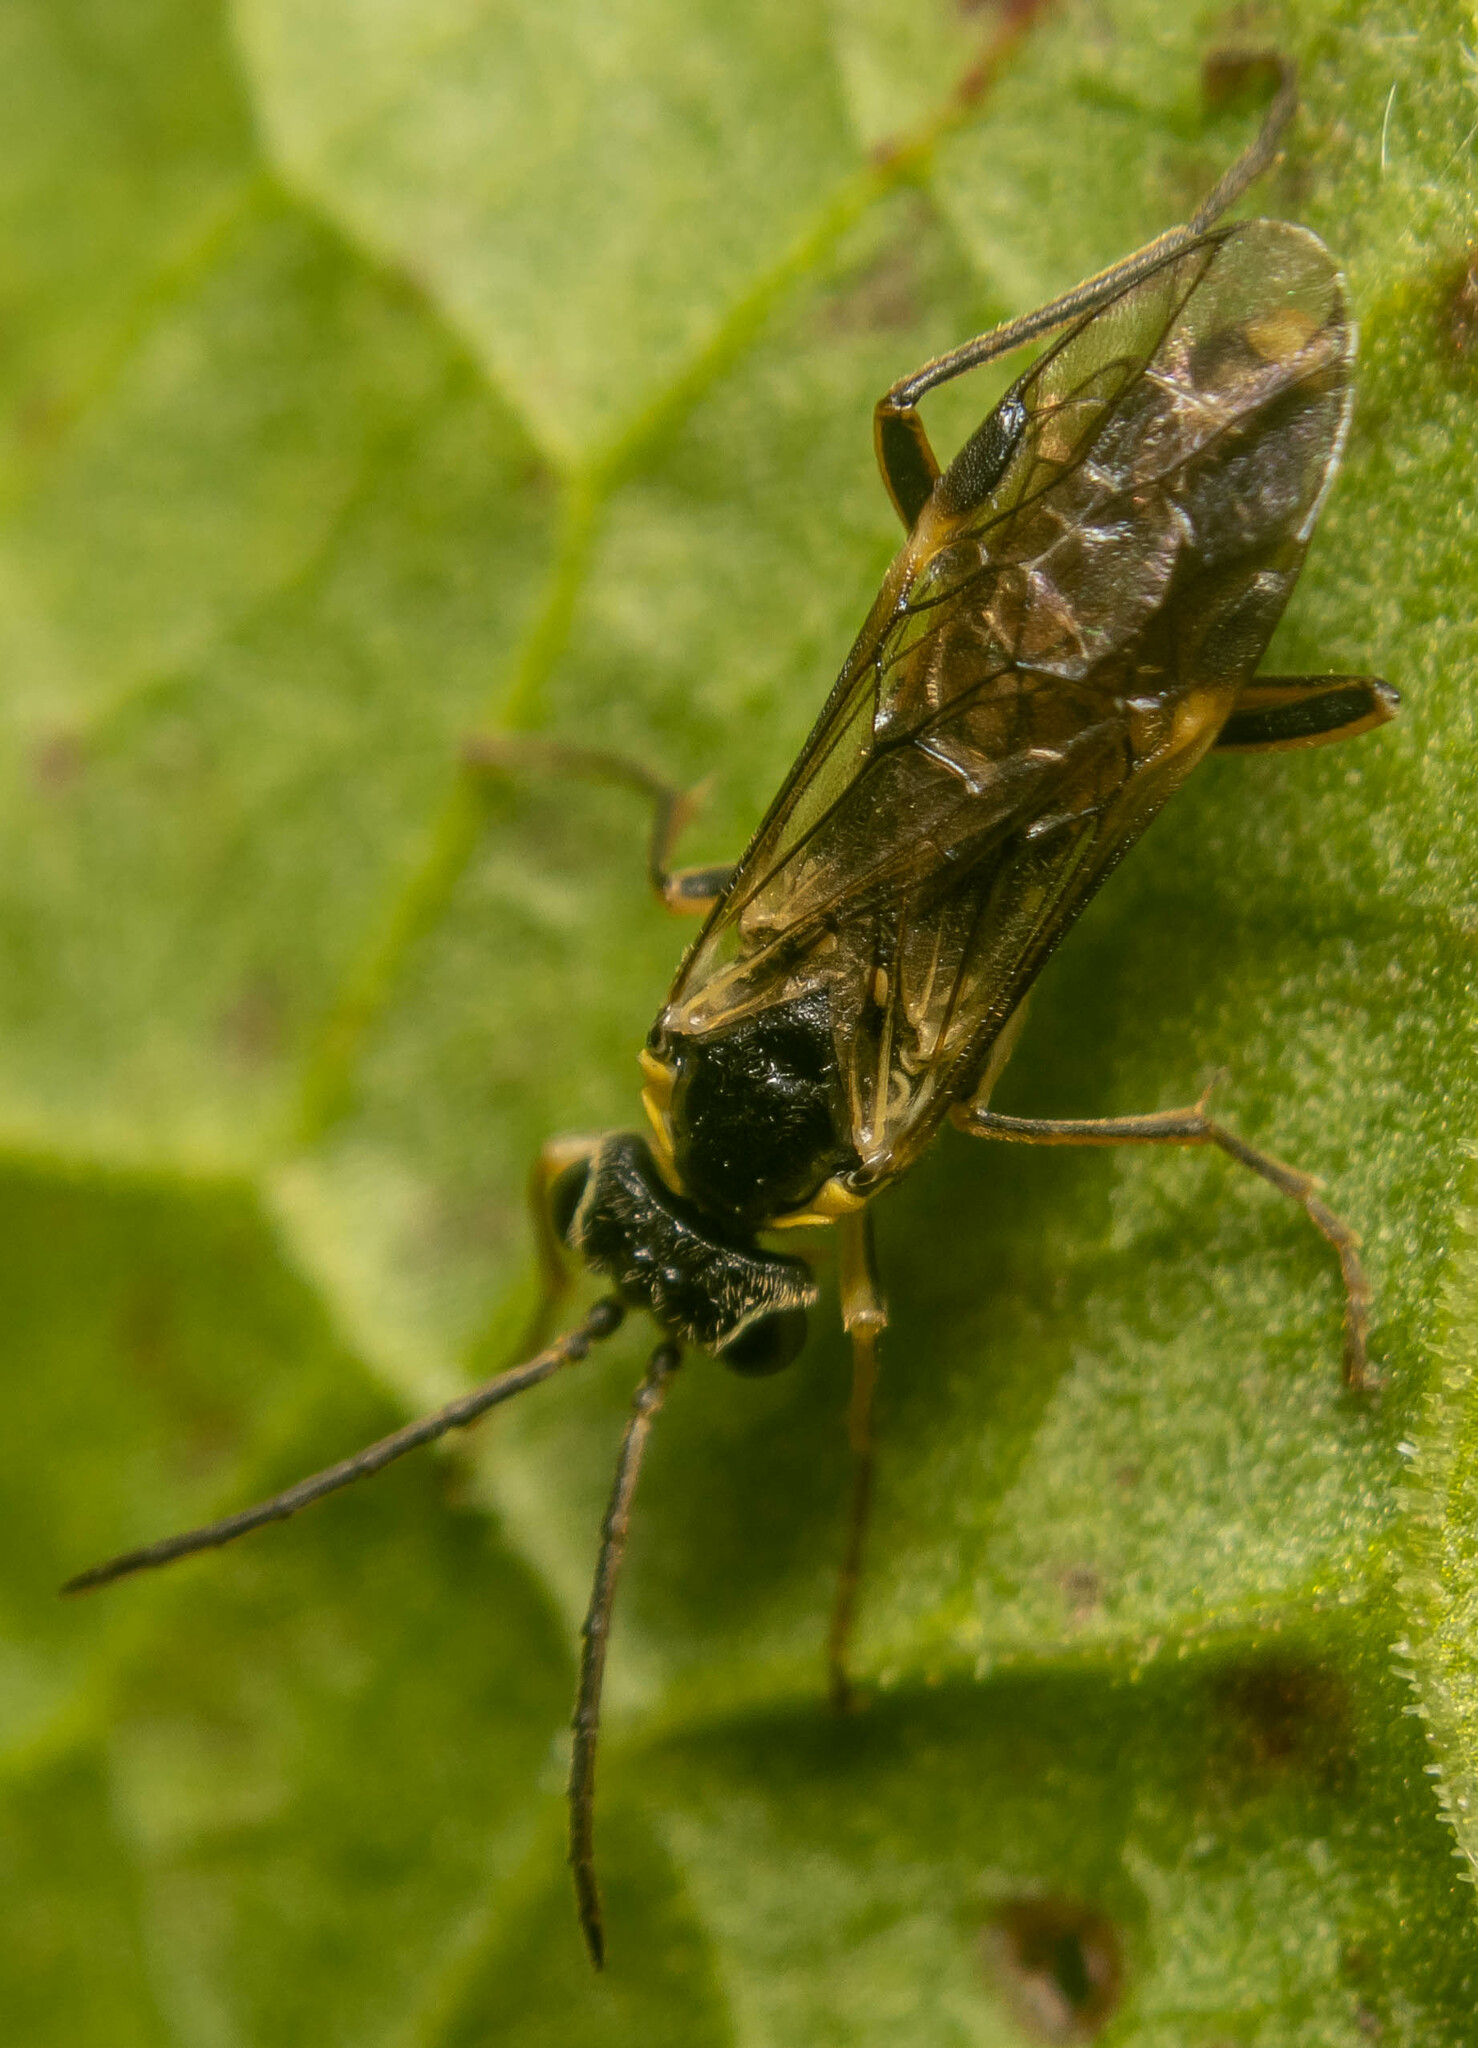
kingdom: Animalia
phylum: Arthropoda
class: Insecta
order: Hymenoptera
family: Tenthredinidae
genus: Aglaostigma
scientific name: Aglaostigma fulvipes
